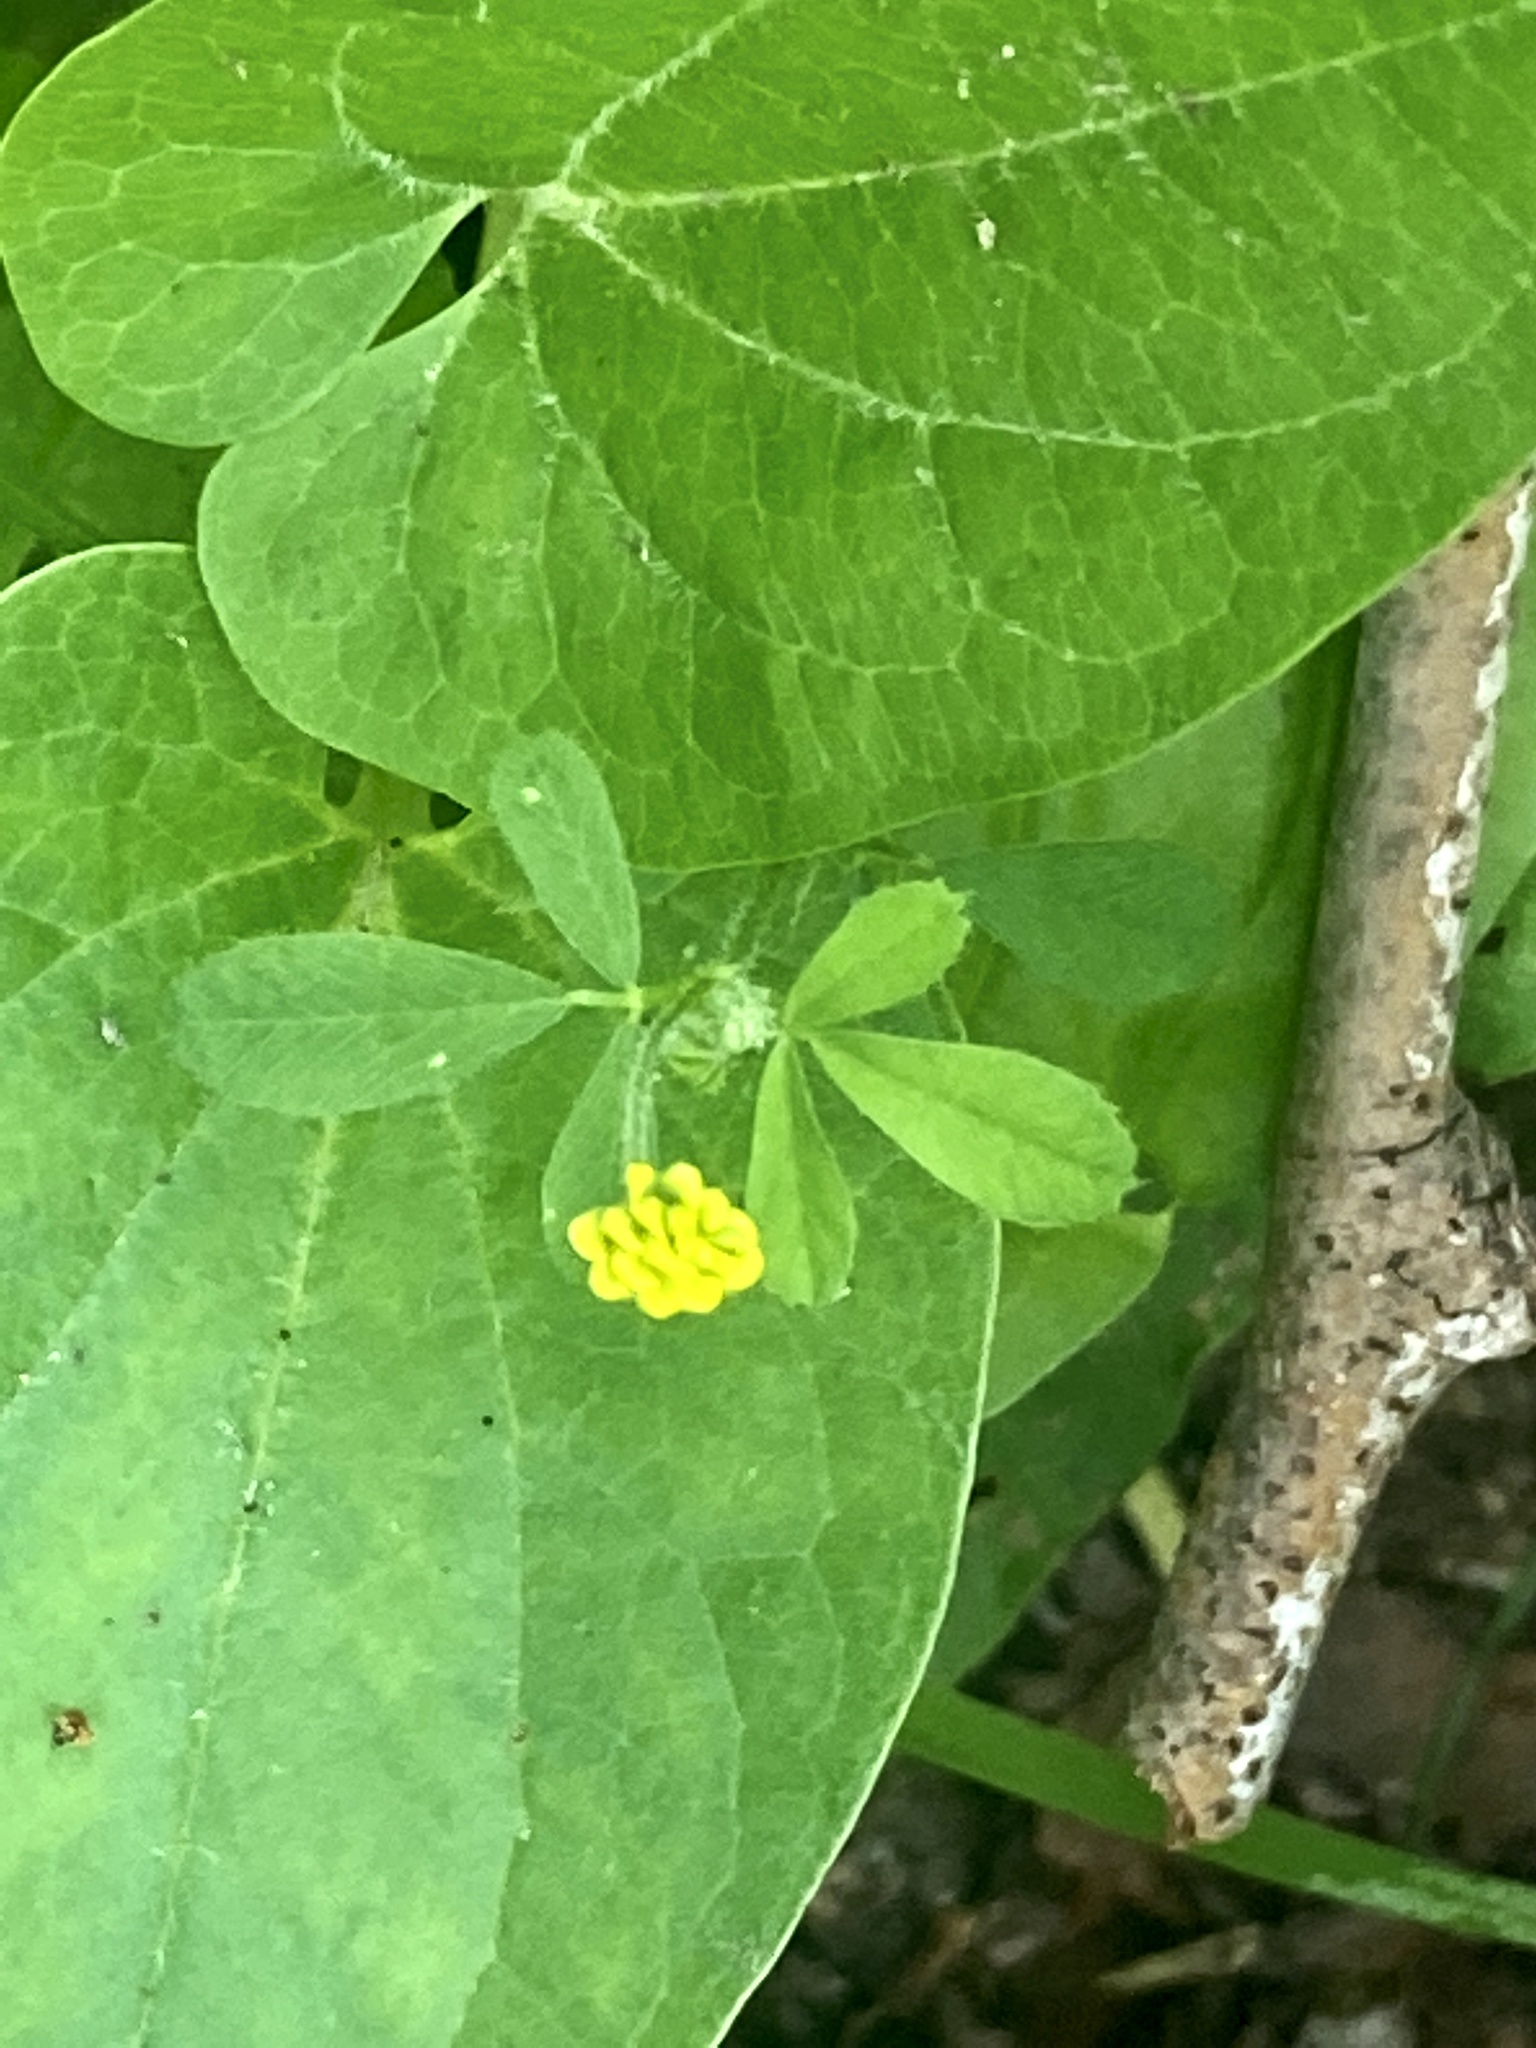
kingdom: Plantae
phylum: Tracheophyta
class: Magnoliopsida
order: Fabales
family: Fabaceae
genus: Medicago
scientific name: Medicago lupulina
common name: Black medick
